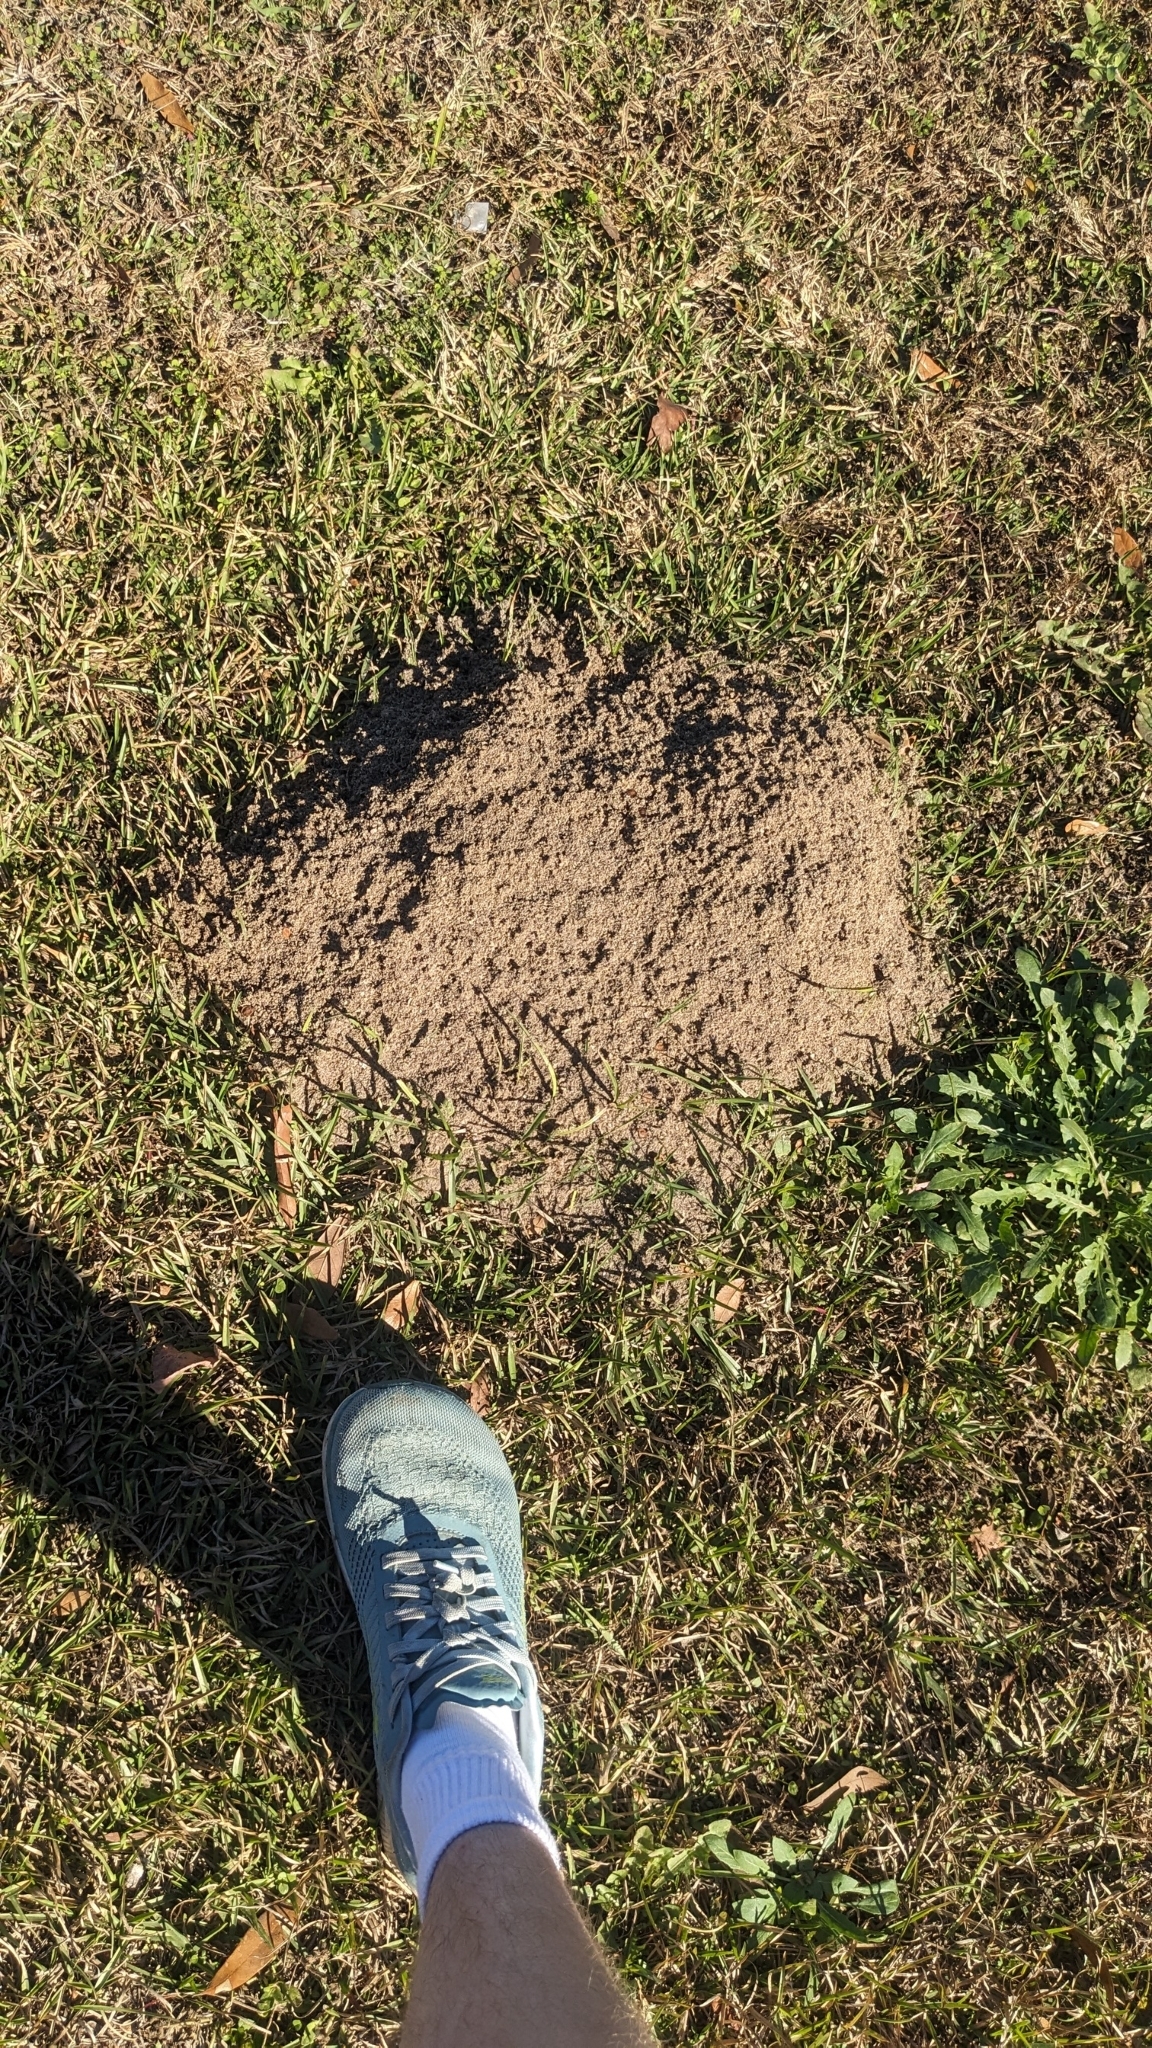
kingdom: Animalia
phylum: Arthropoda
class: Insecta
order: Hymenoptera
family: Formicidae
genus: Solenopsis
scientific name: Solenopsis invicta
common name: Red imported fire ant
